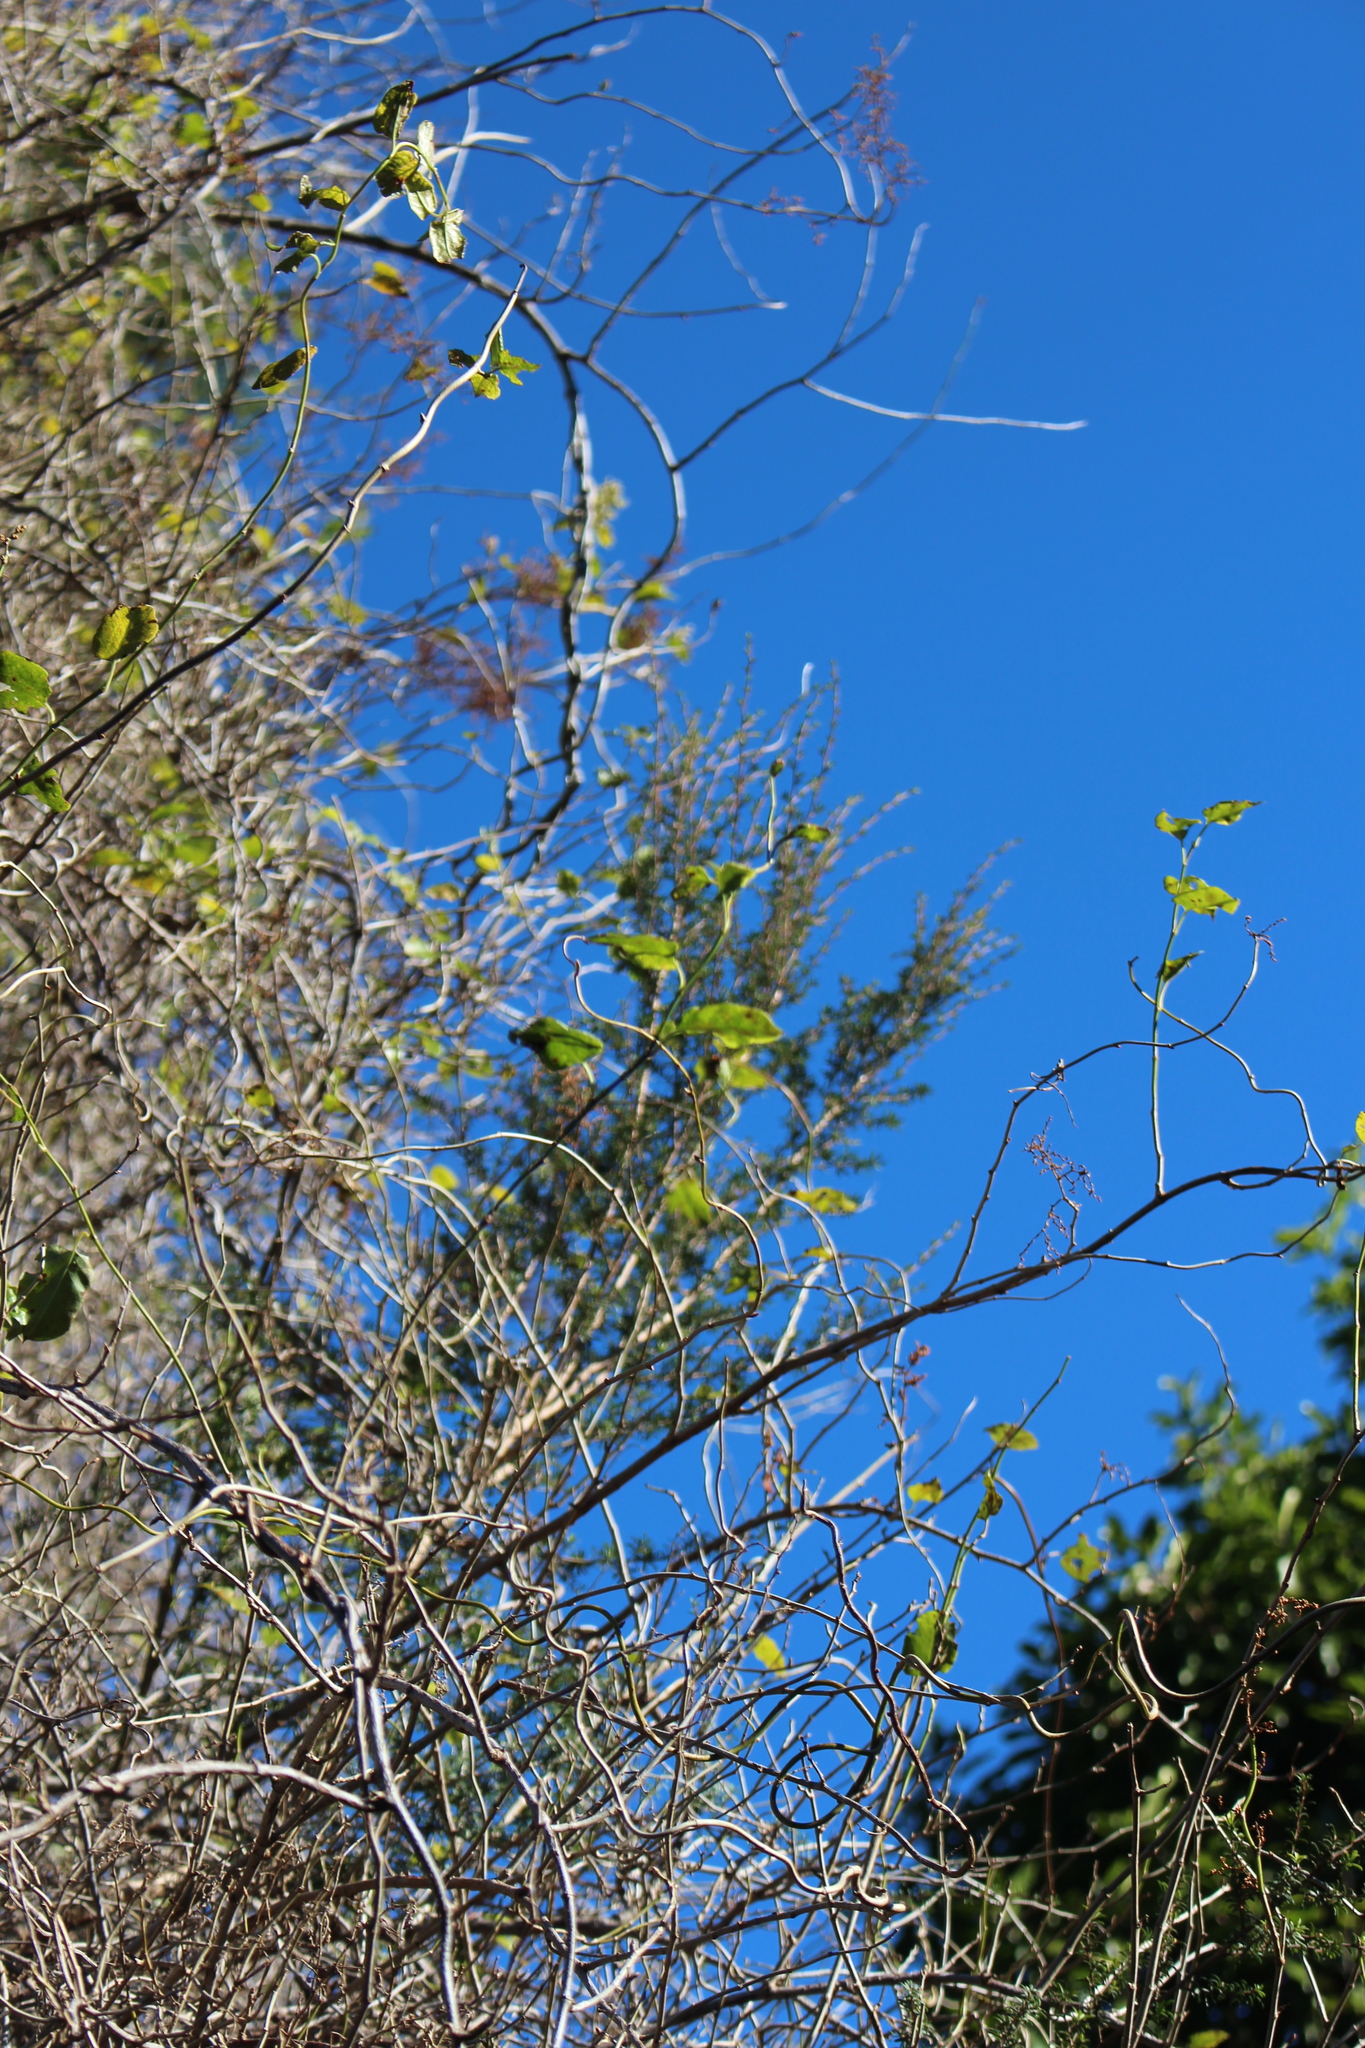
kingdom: Plantae
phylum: Tracheophyta
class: Magnoliopsida
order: Caryophyllales
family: Polygonaceae
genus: Muehlenbeckia
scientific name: Muehlenbeckia australis
